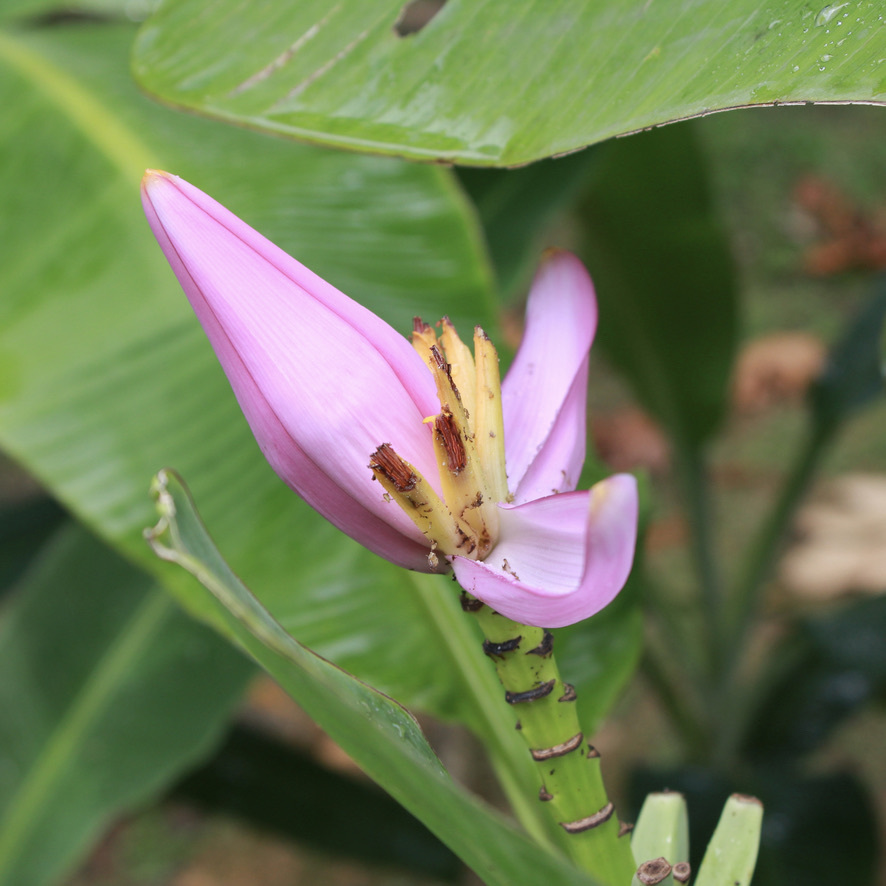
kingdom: Plantae
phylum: Tracheophyta
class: Liliopsida
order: Zingiberales
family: Musaceae
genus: Musa
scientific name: Musa ornata
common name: Flowering banana
